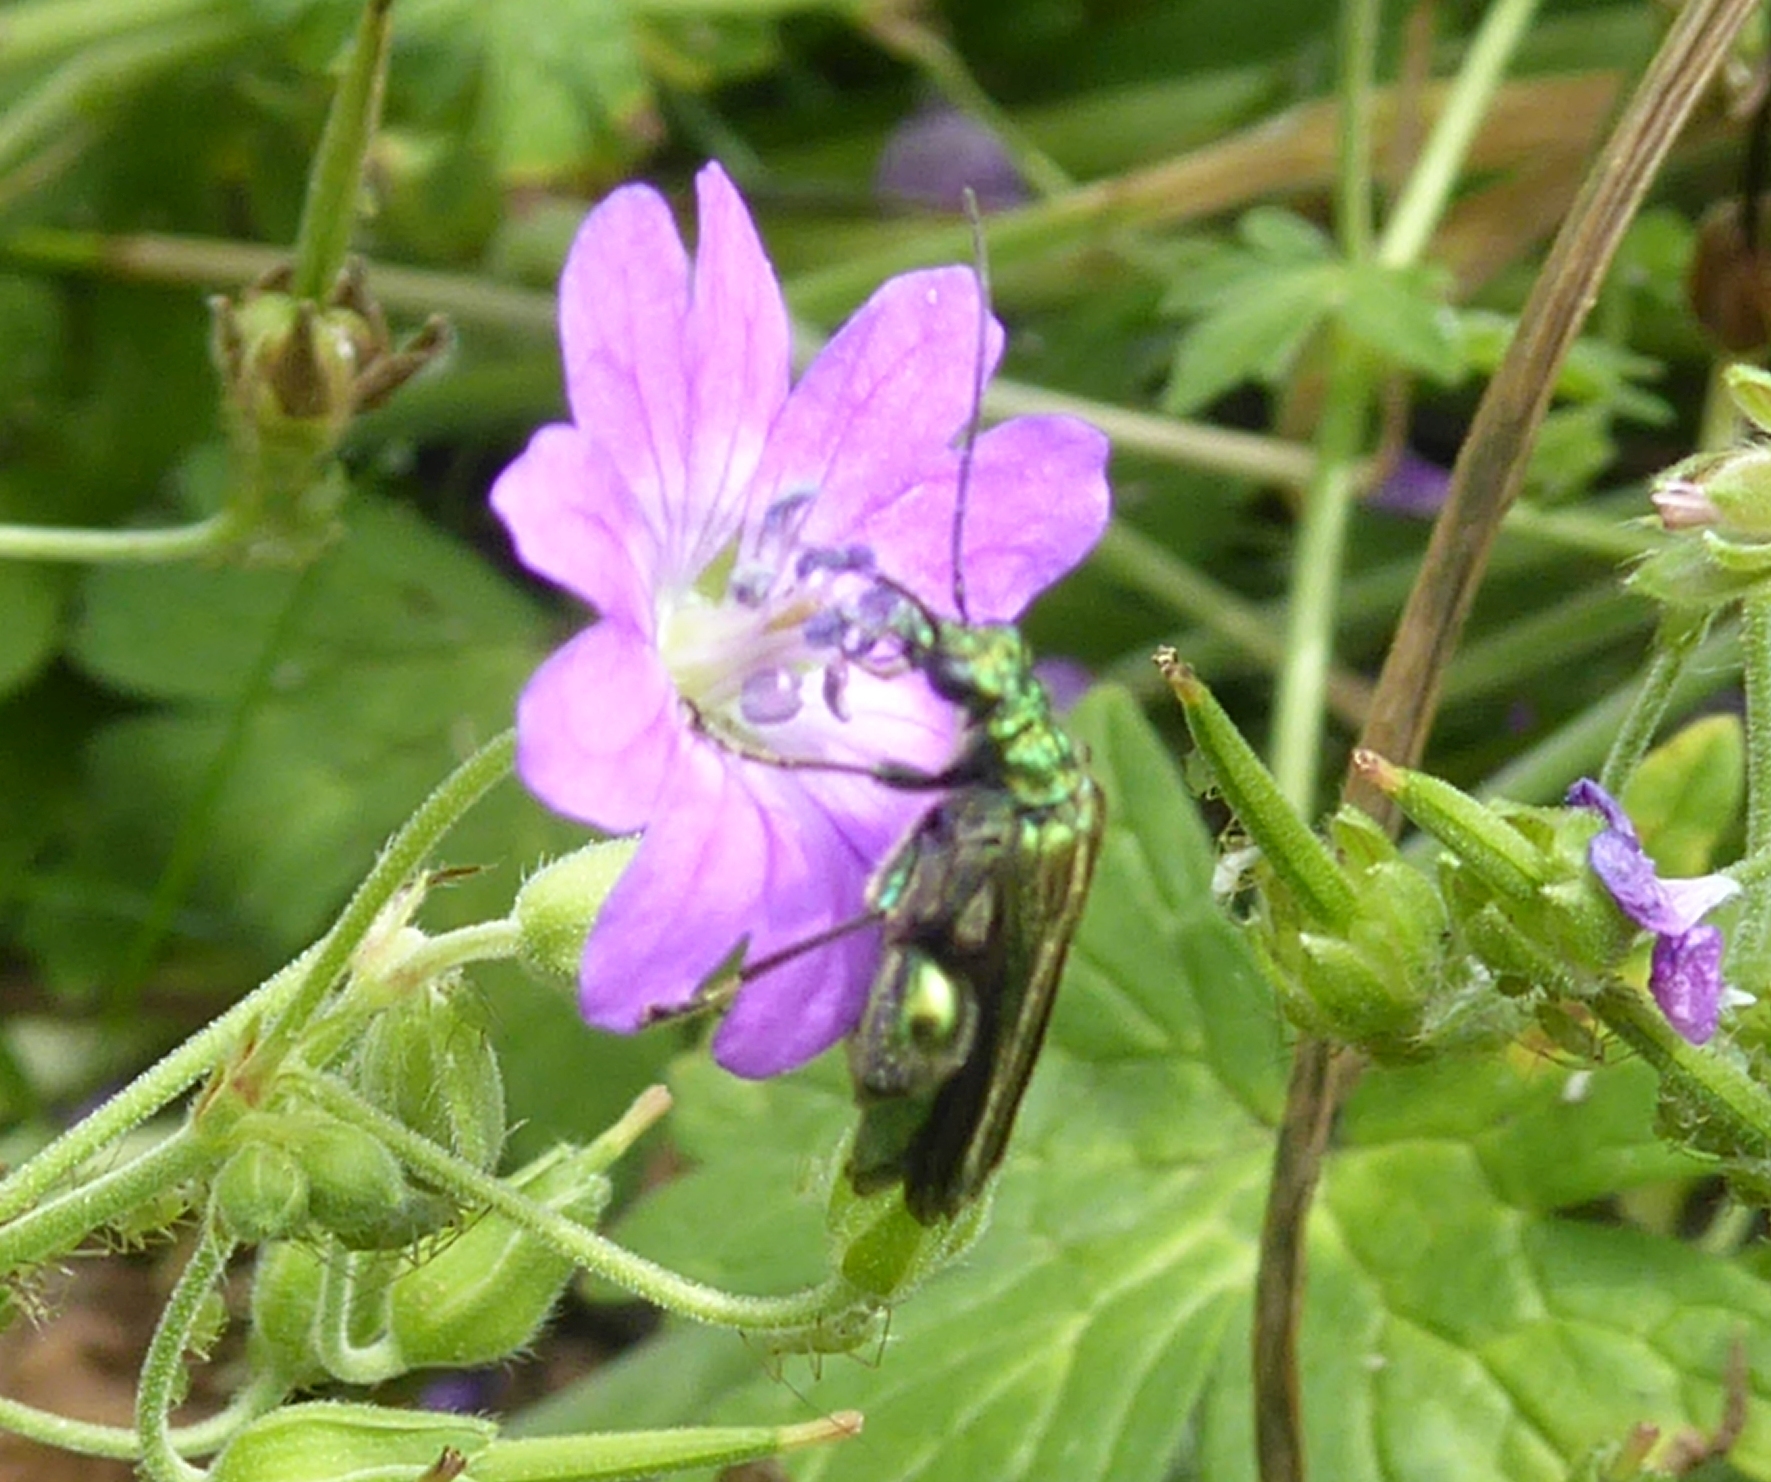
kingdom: Animalia
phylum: Arthropoda
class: Insecta
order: Coleoptera
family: Oedemeridae
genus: Oedemera
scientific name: Oedemera nobilis
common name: Swollen-thighed beetle
